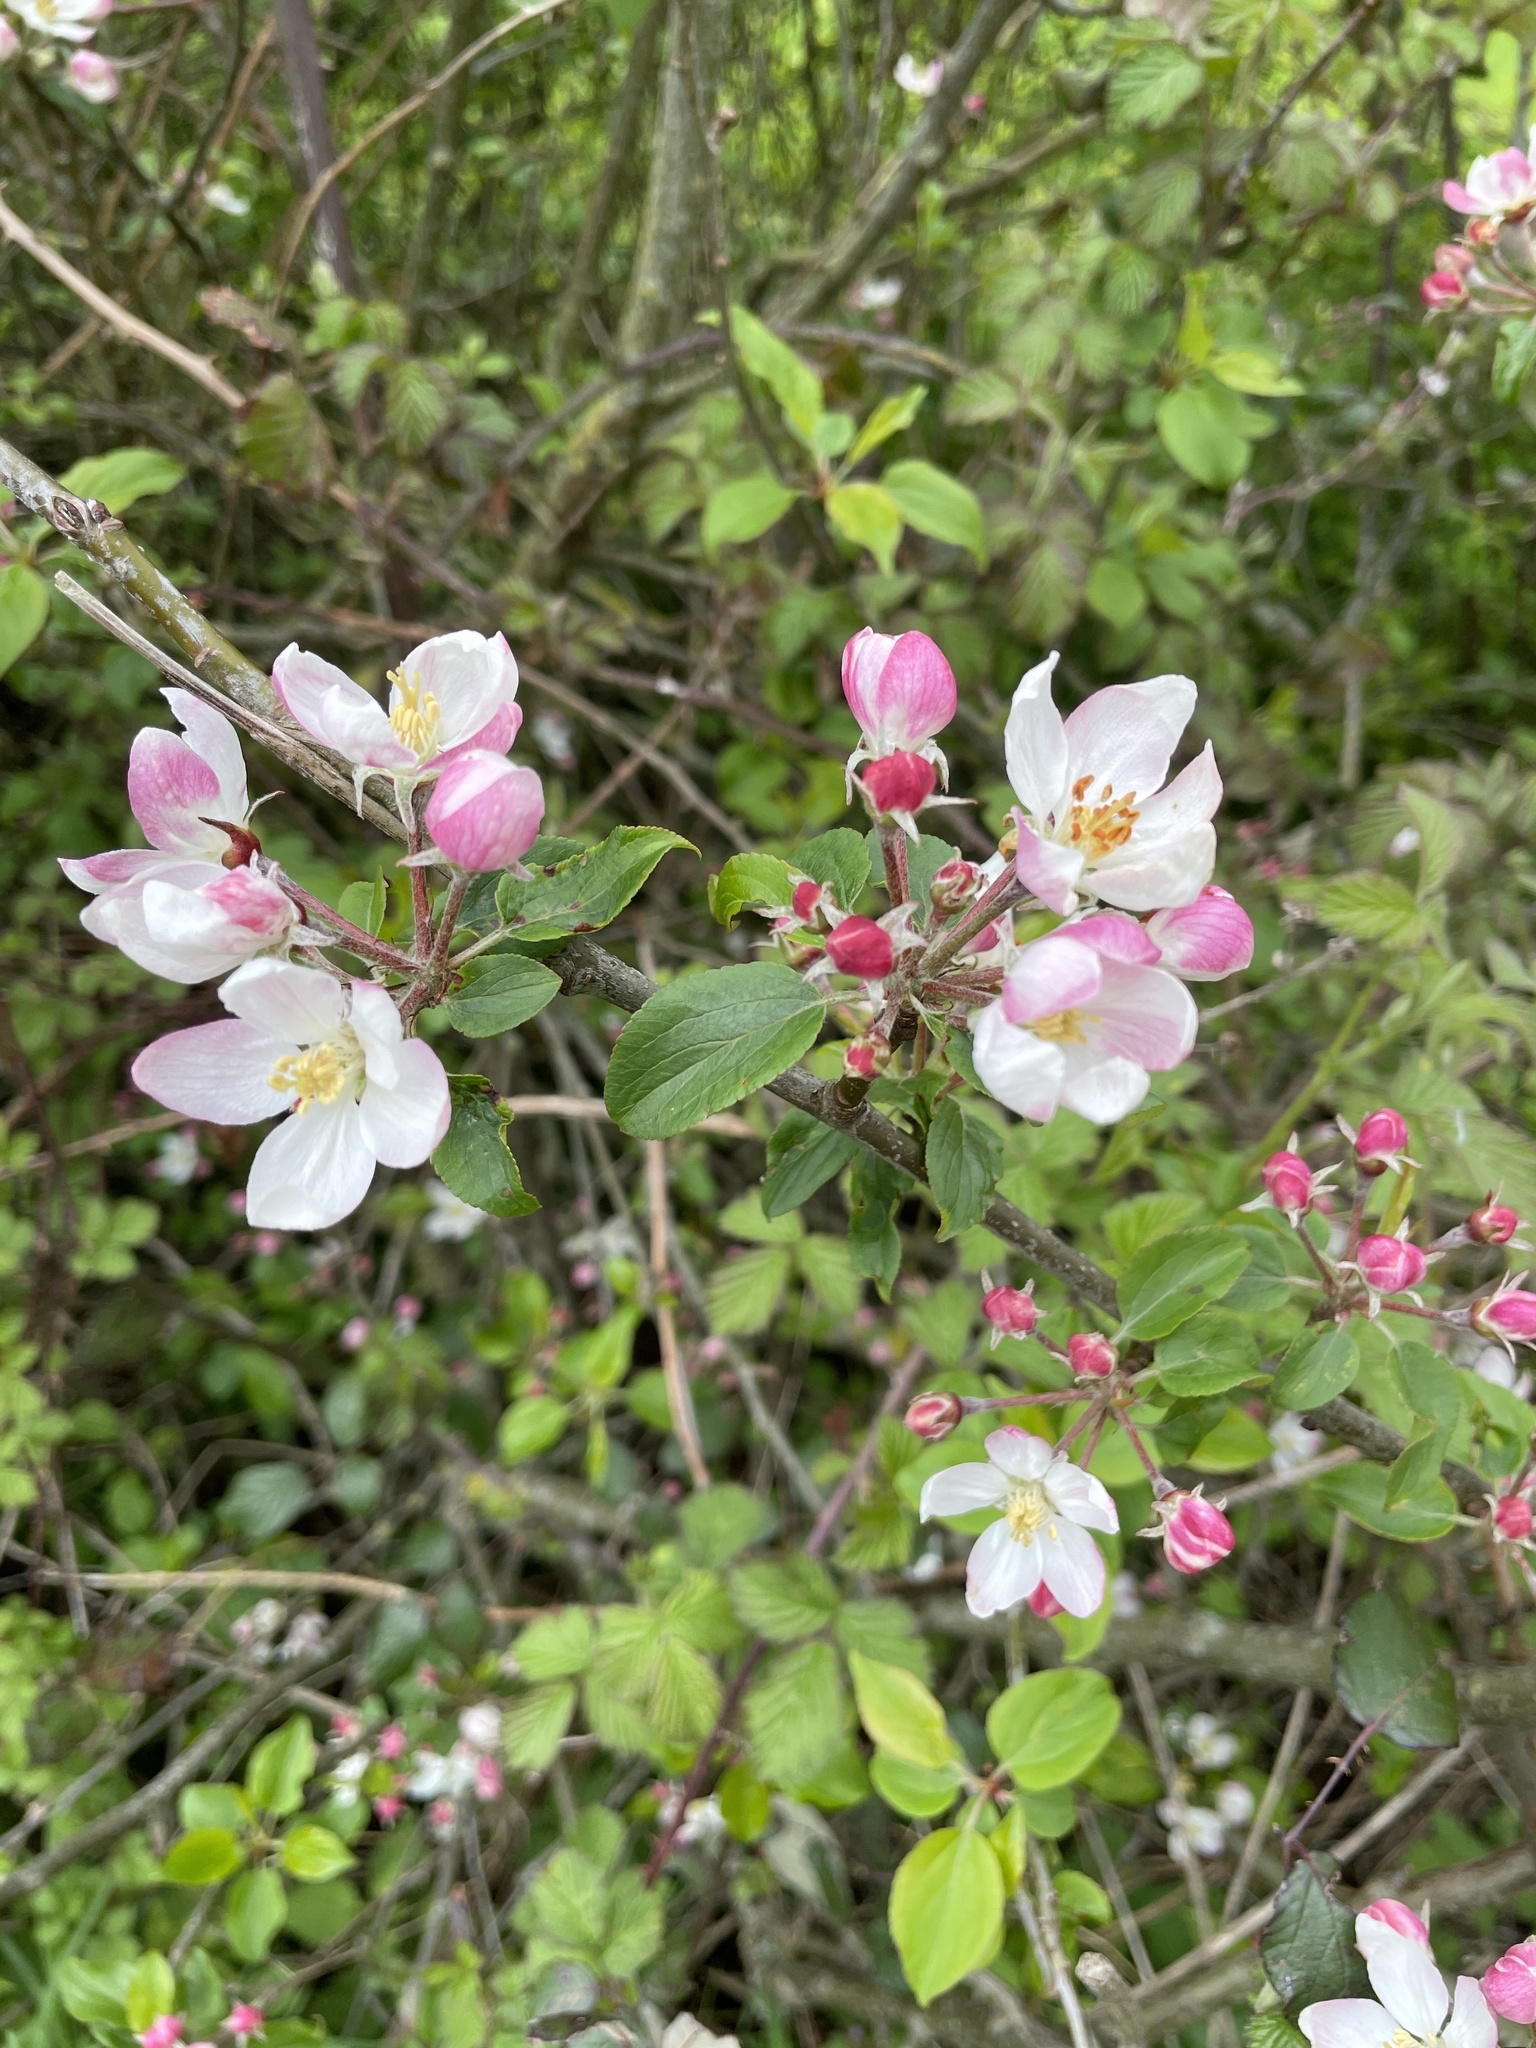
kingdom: Plantae
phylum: Tracheophyta
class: Magnoliopsida
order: Rosales
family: Rosaceae
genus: Malus
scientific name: Malus domestica
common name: Apple
